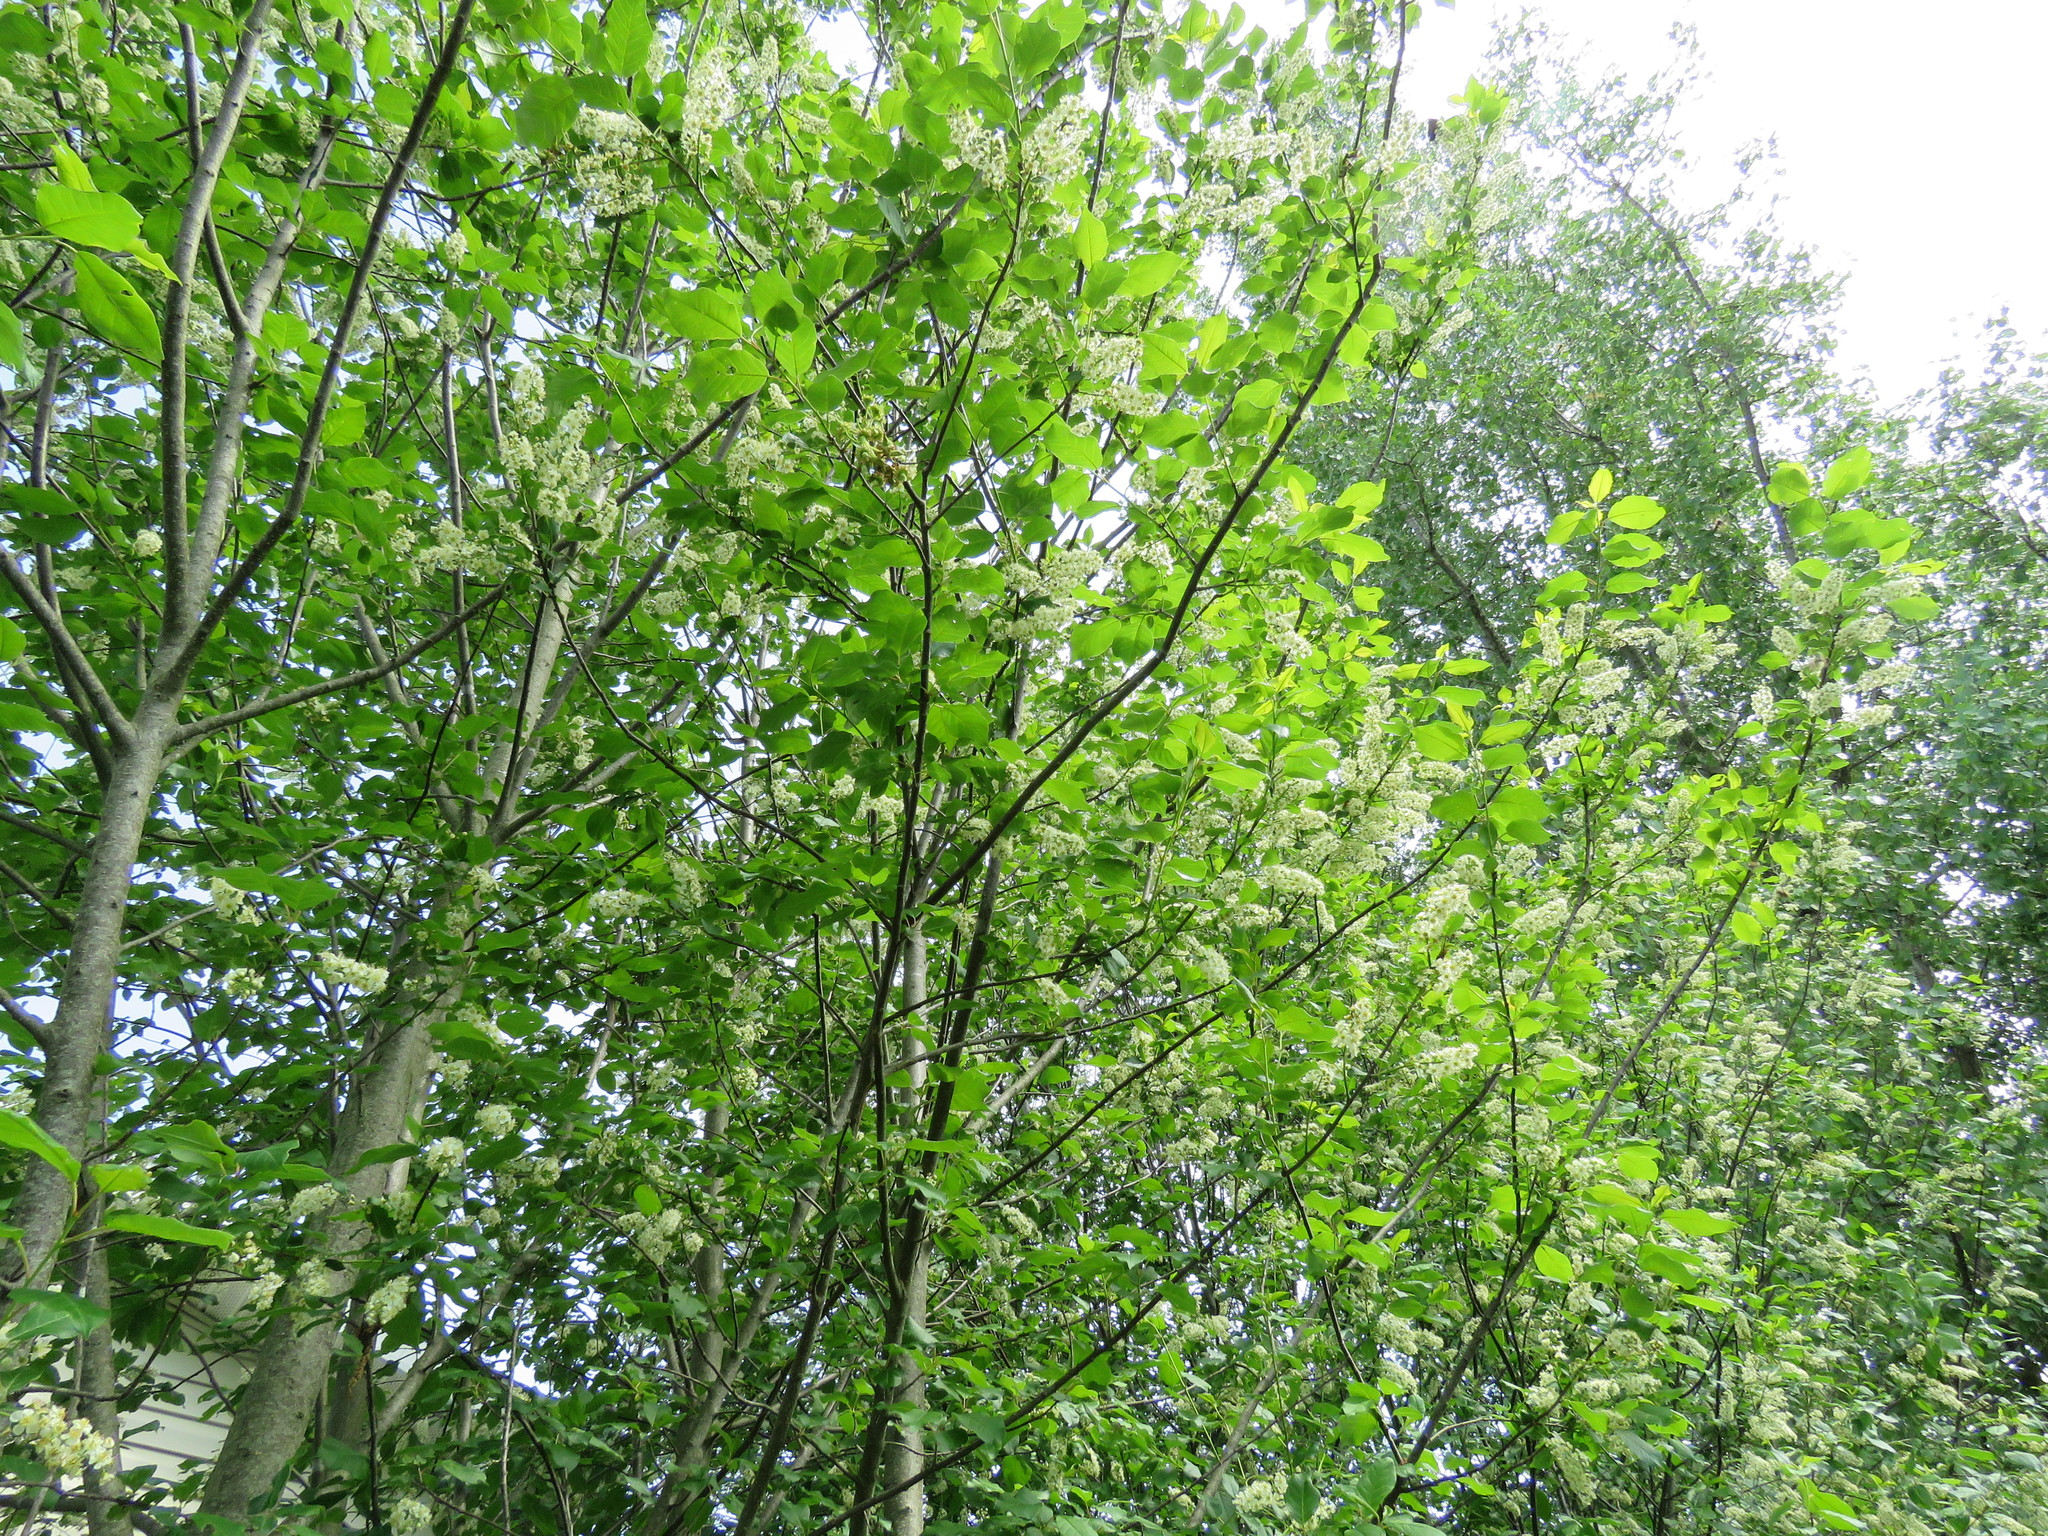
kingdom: Plantae
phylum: Tracheophyta
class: Magnoliopsida
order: Rosales
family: Rosaceae
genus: Prunus
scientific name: Prunus virginiana
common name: Chokecherry
